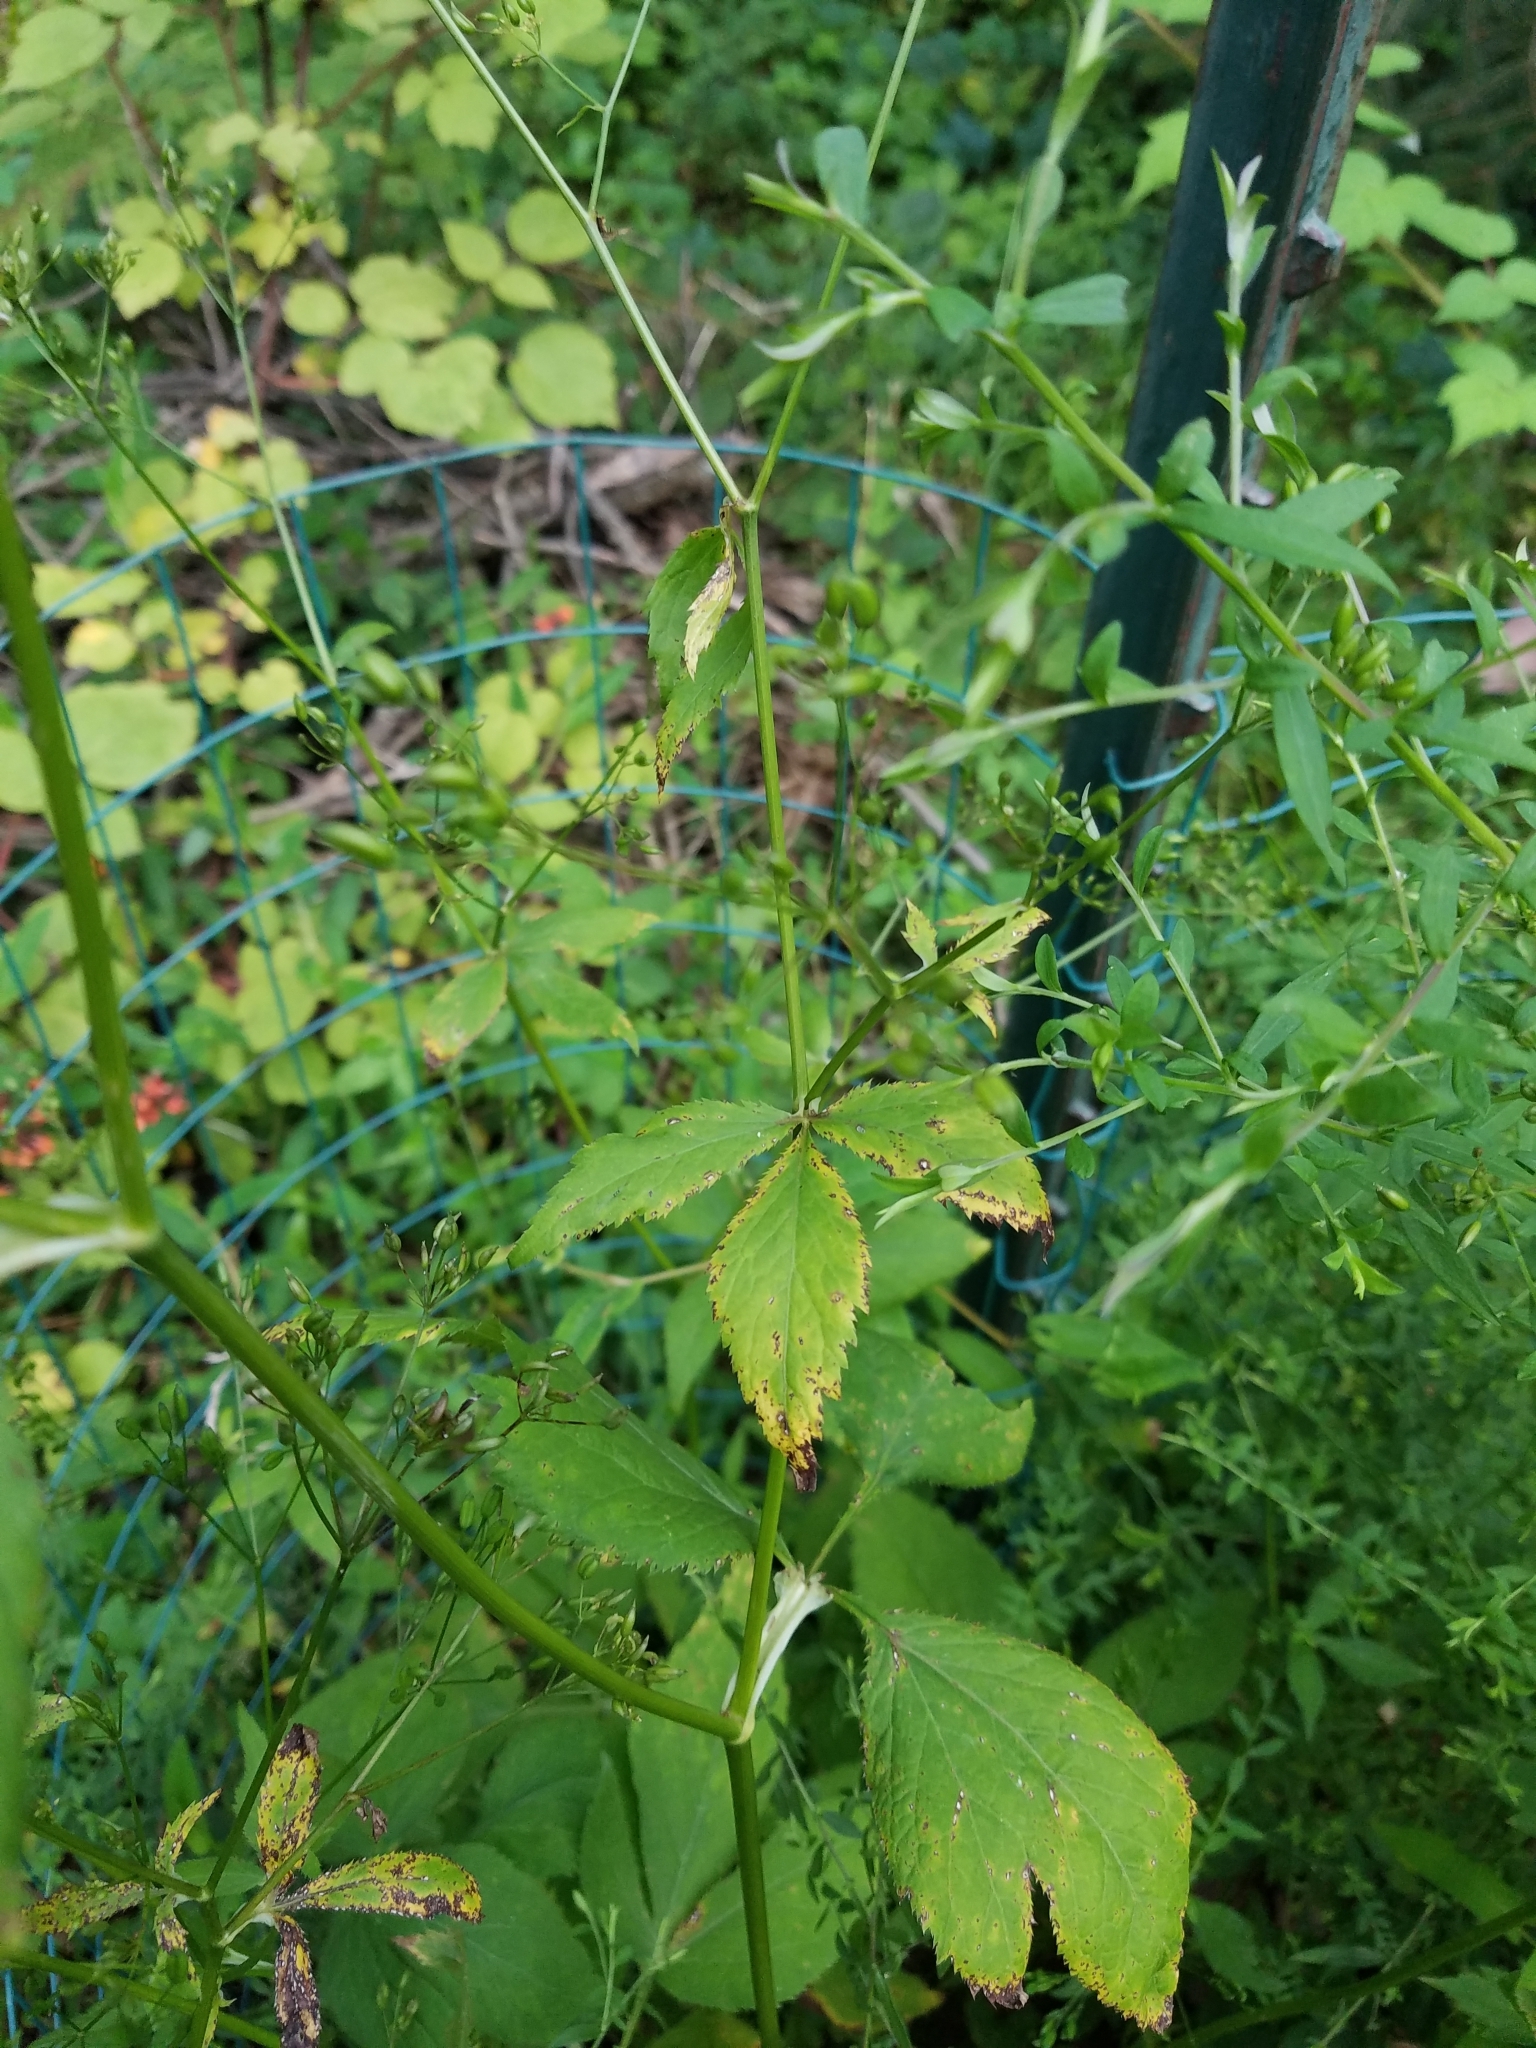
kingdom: Plantae
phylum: Tracheophyta
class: Magnoliopsida
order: Apiales
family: Apiaceae
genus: Cryptotaenia
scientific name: Cryptotaenia canadensis
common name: Honewort
